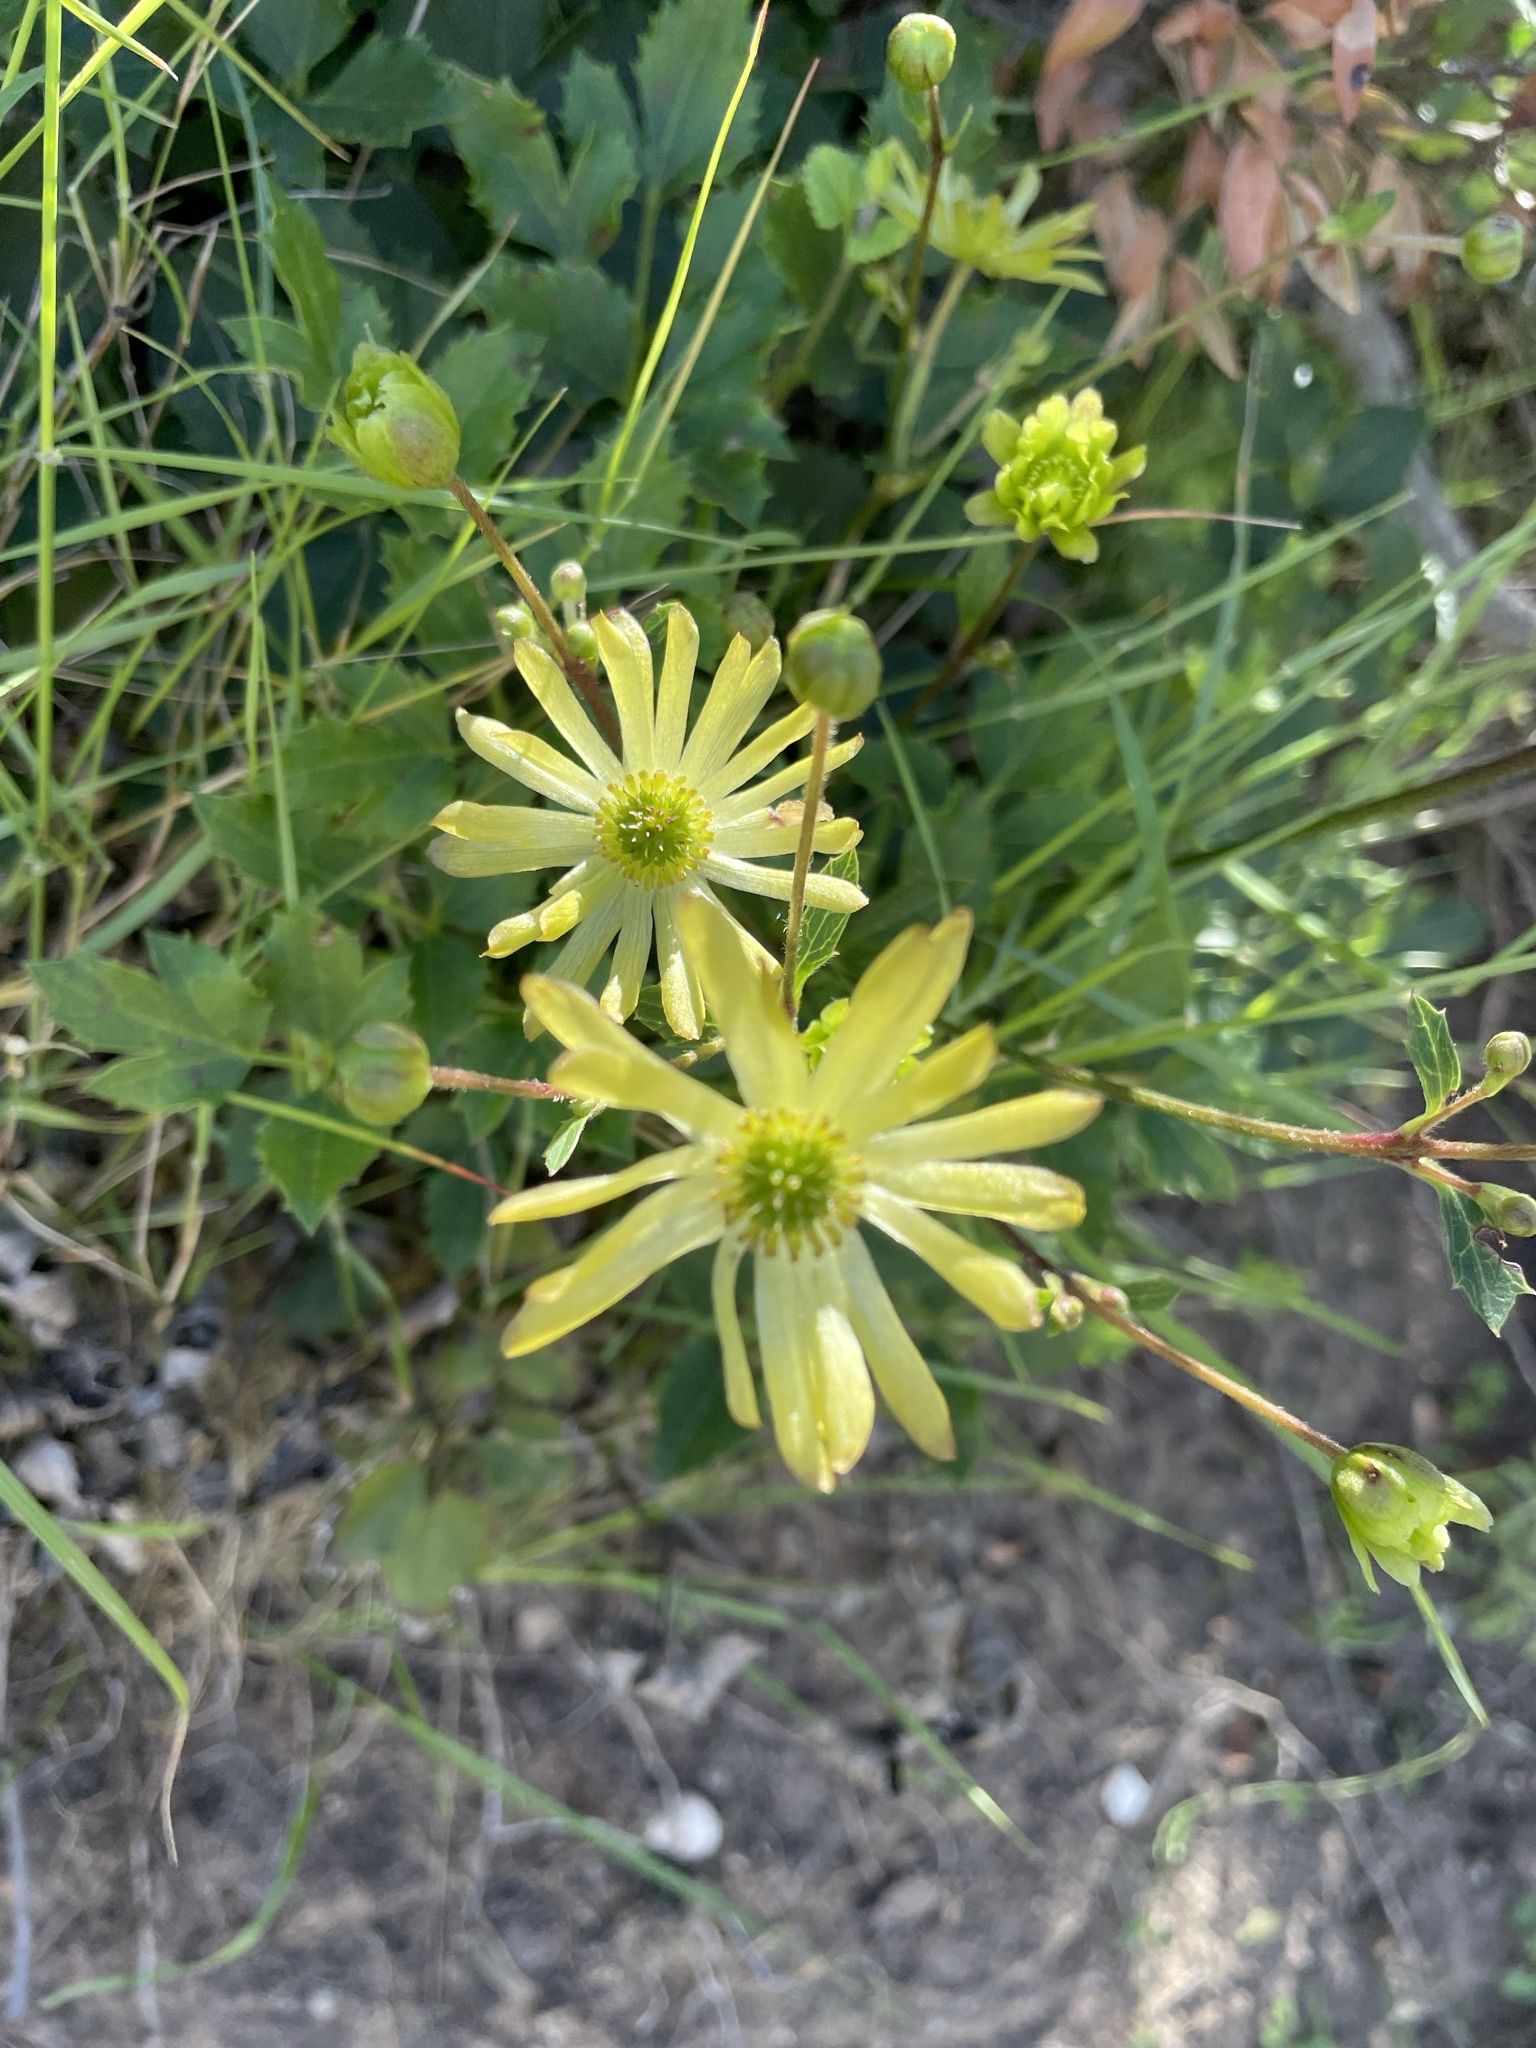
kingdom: Plantae
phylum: Tracheophyta
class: Magnoliopsida
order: Ranunculales
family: Ranunculaceae
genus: Knowltonia
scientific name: Knowltonia vesicatoria
